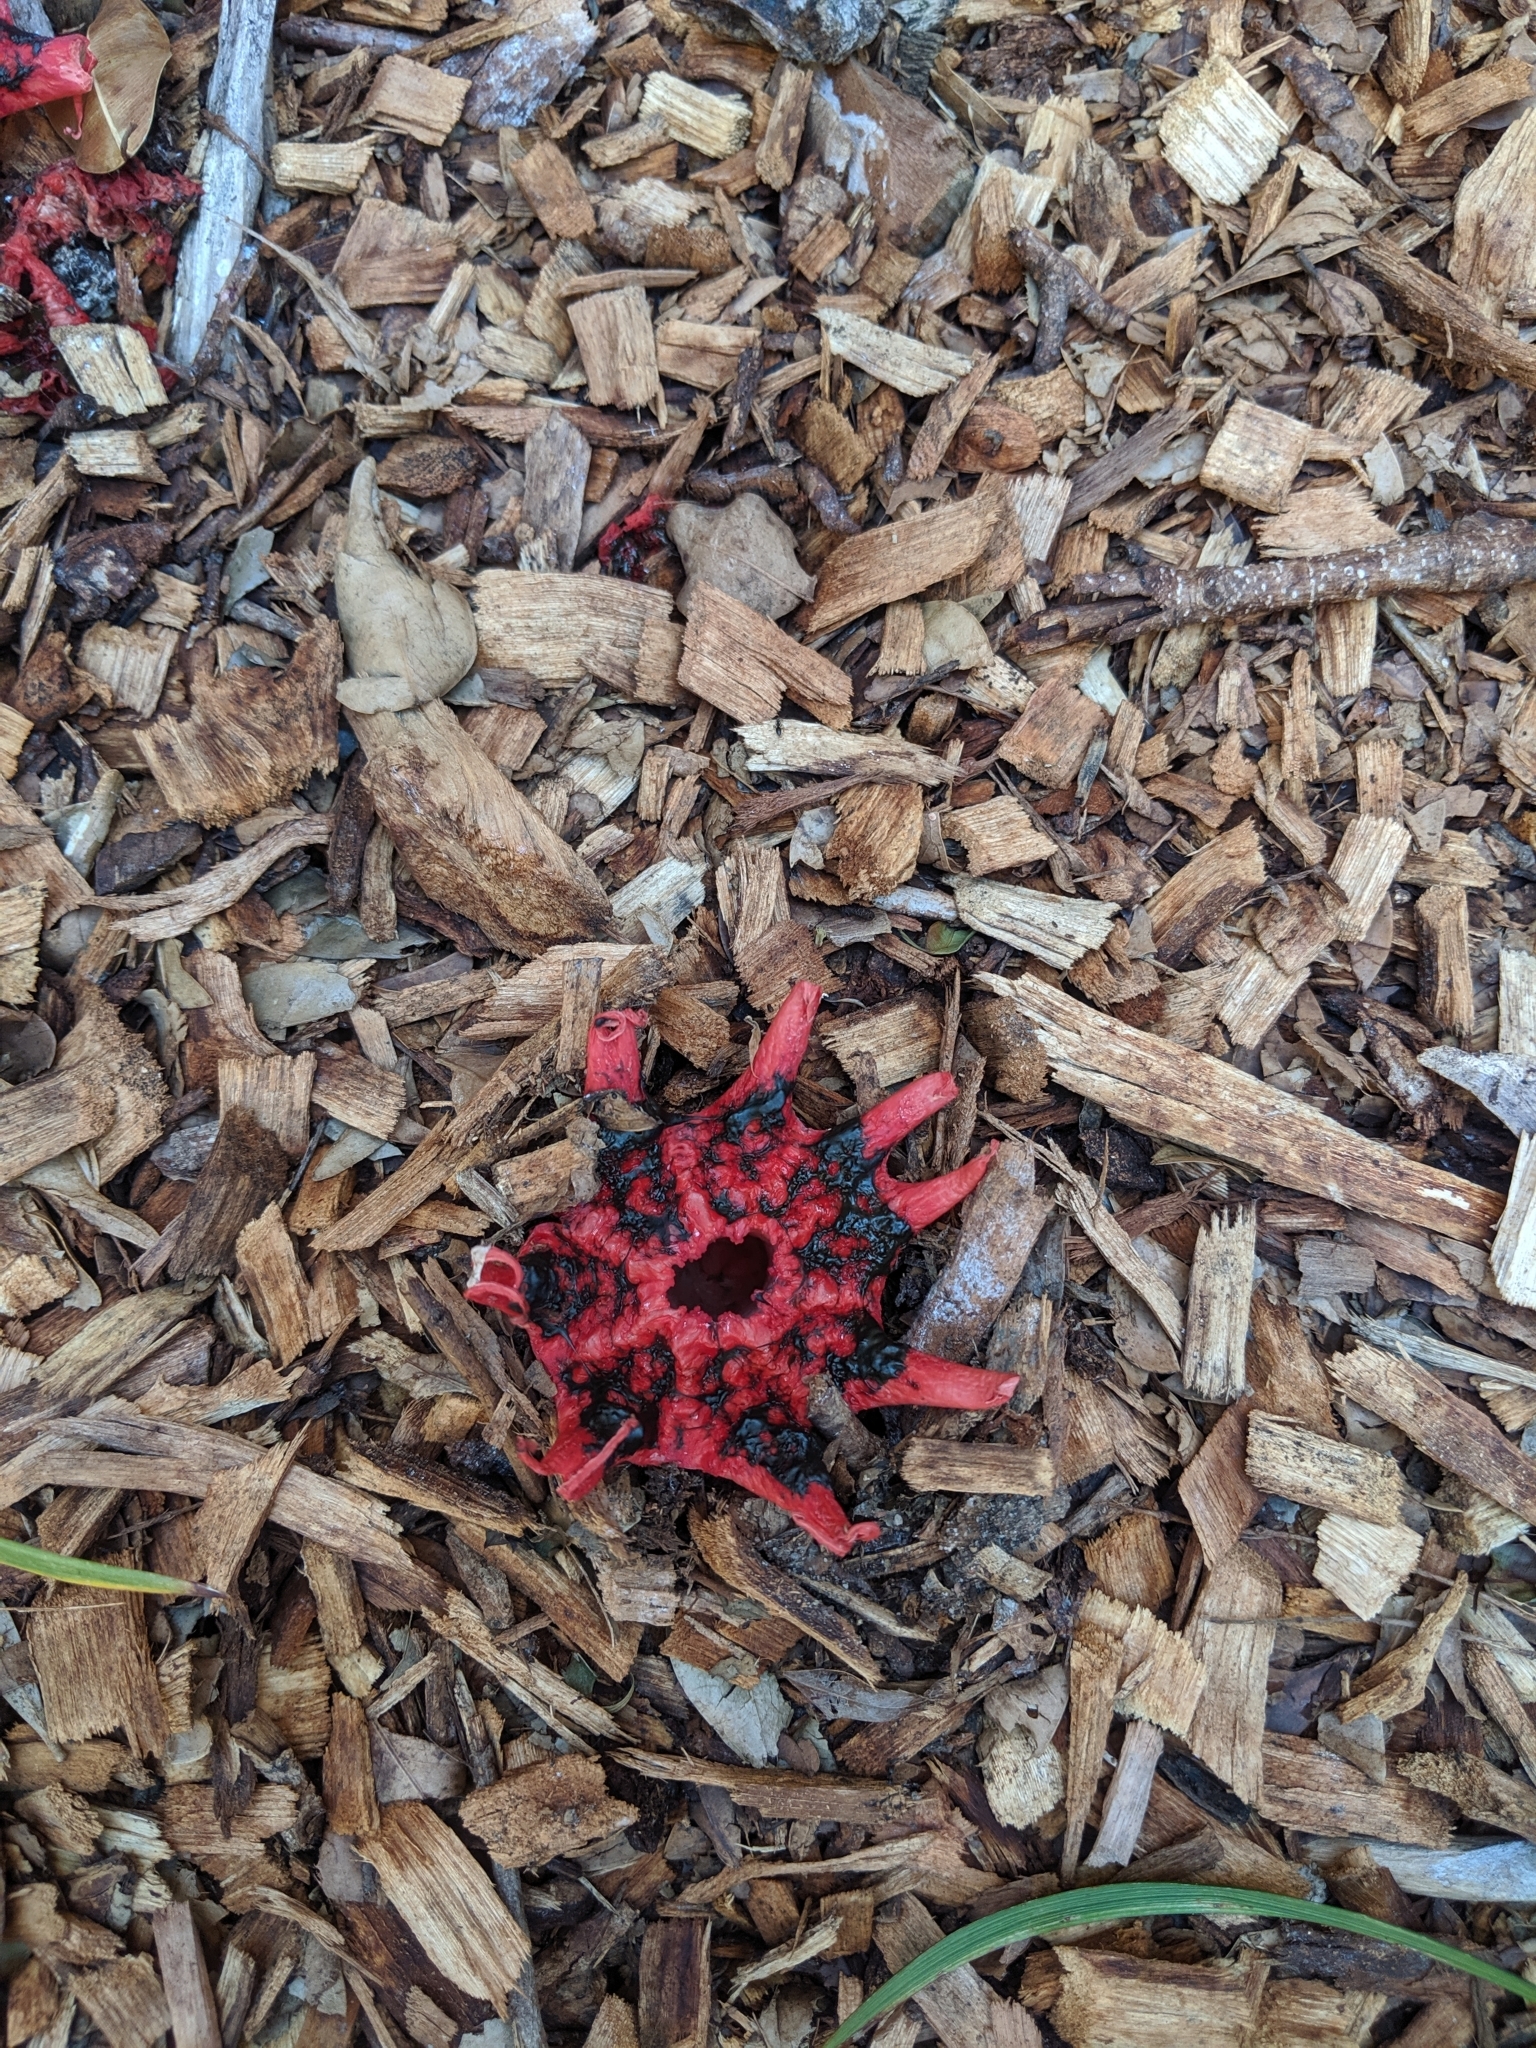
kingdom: Fungi
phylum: Basidiomycota
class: Agaricomycetes
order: Phallales
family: Phallaceae
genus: Aseroe
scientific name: Aseroe rubra
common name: Starfish fungus
